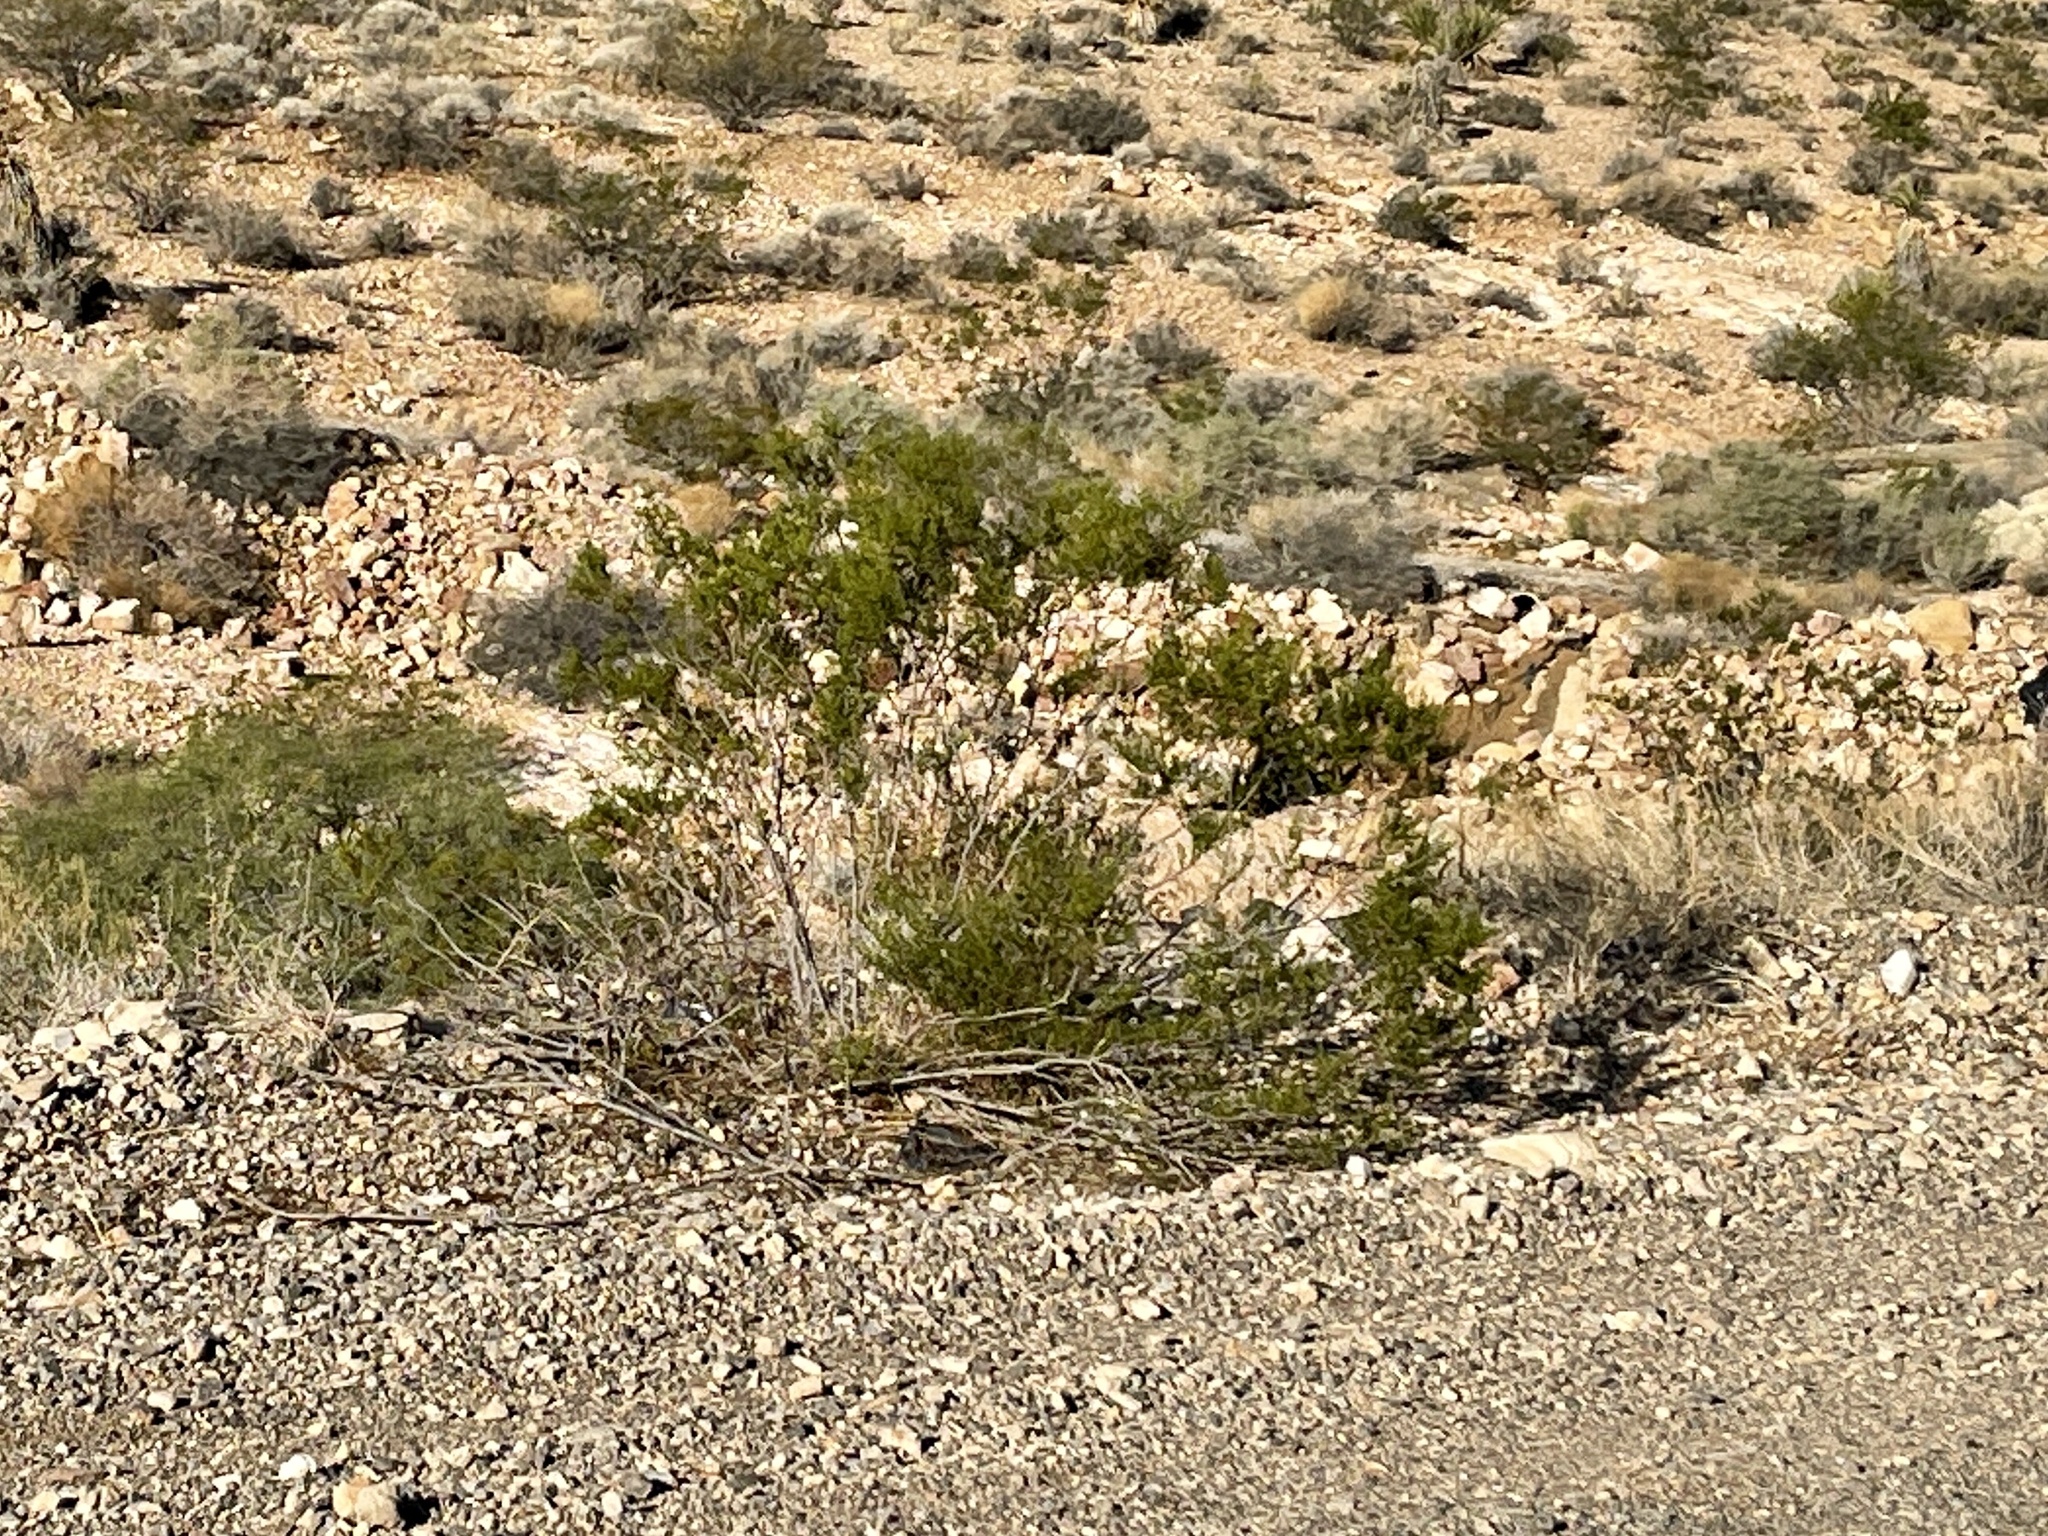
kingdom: Plantae
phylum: Tracheophyta
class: Magnoliopsida
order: Zygophyllales
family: Zygophyllaceae
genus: Larrea
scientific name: Larrea tridentata
